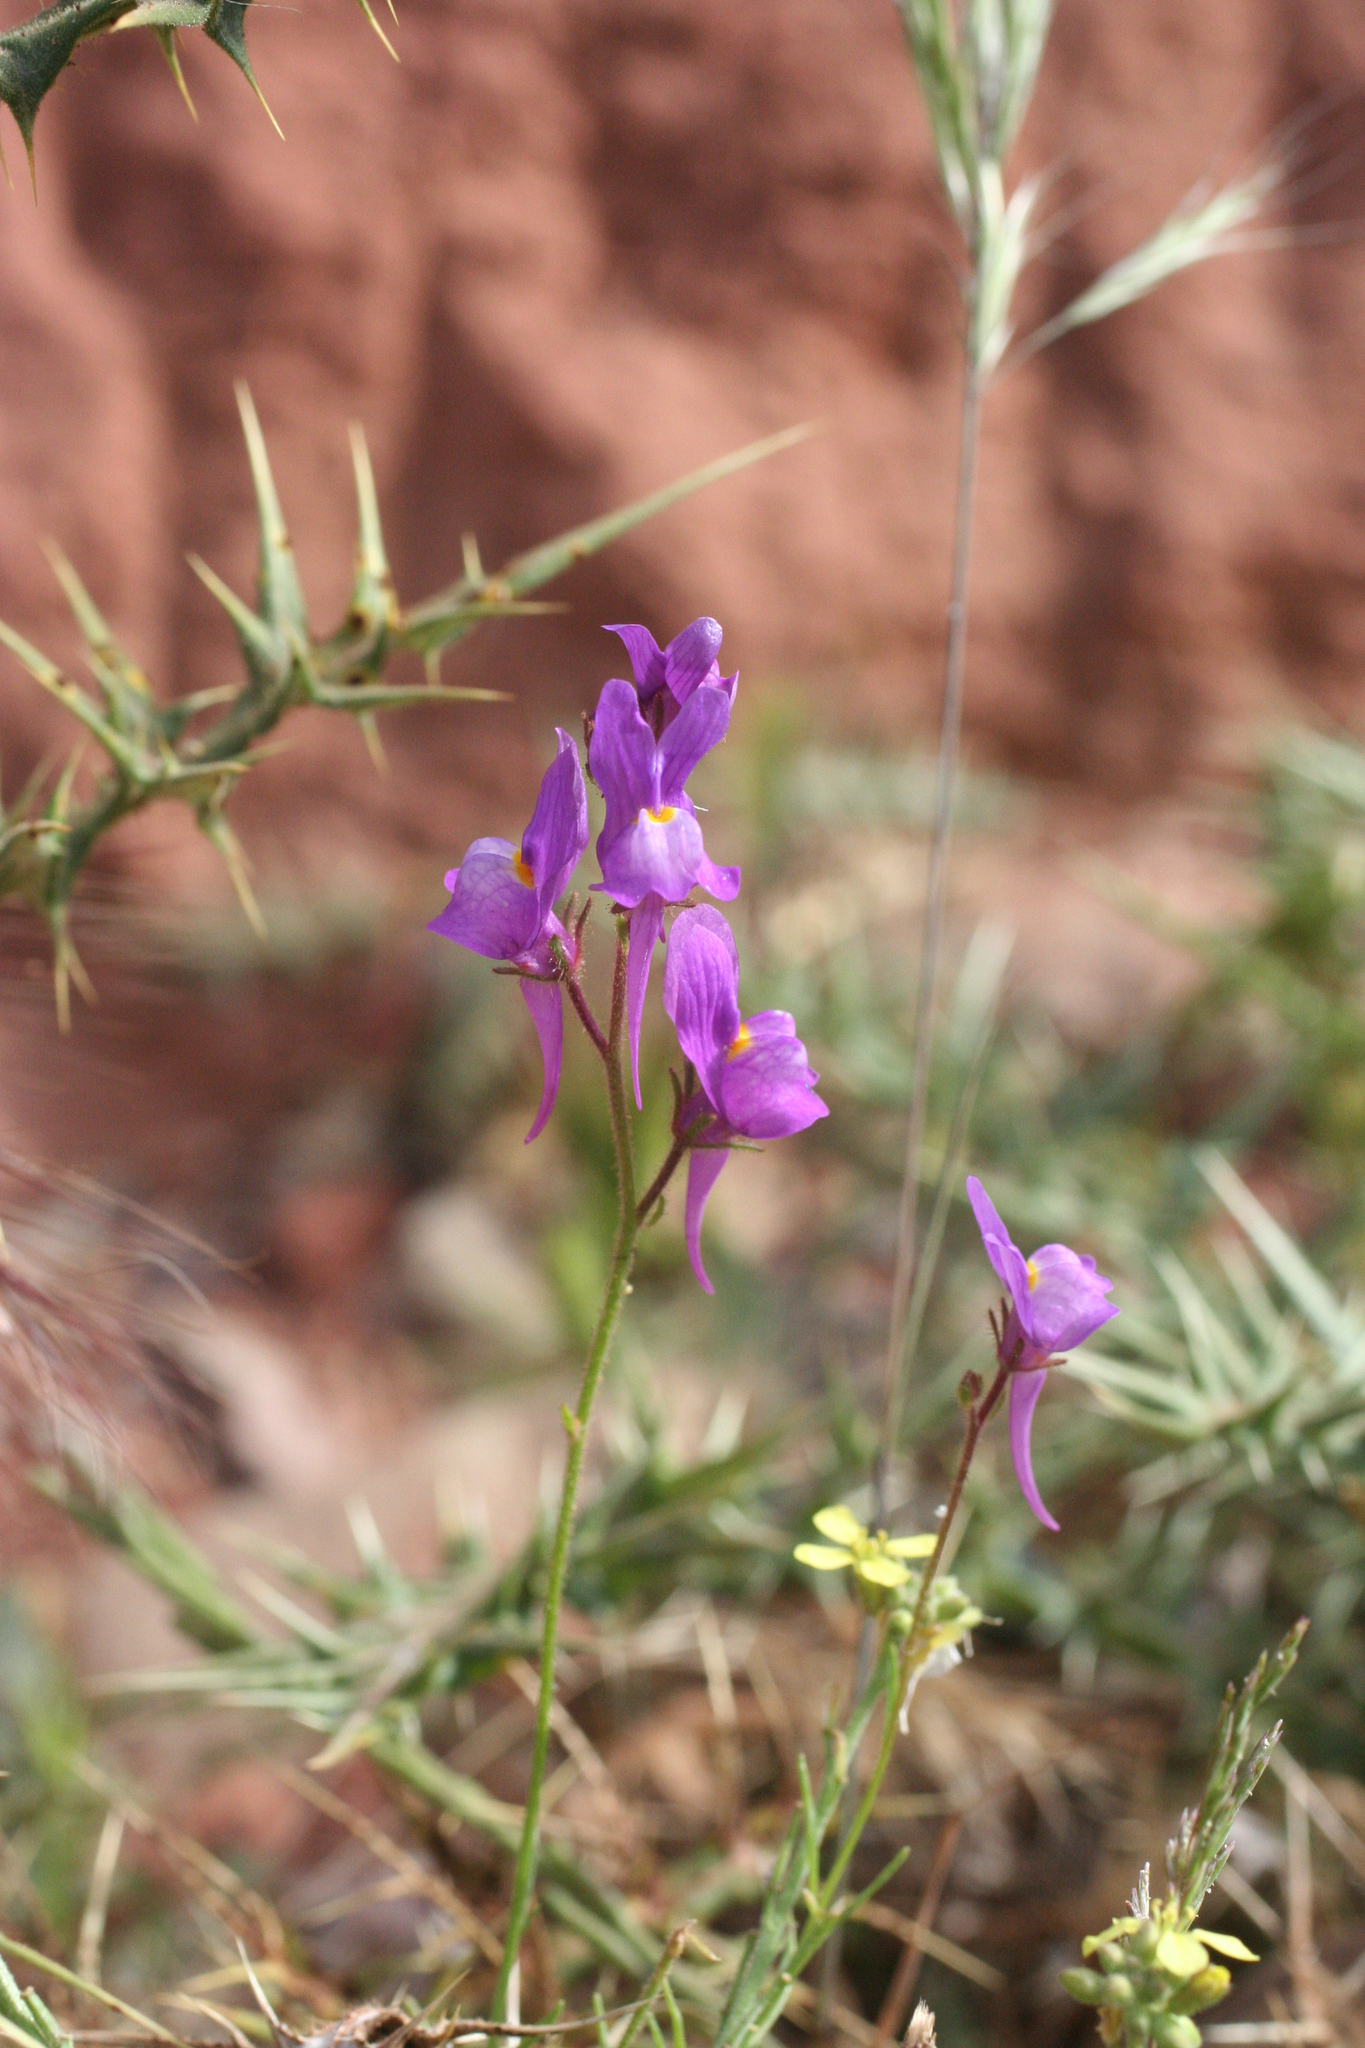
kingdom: Plantae
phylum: Tracheophyta
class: Magnoliopsida
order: Lamiales
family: Plantaginaceae
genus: Linaria
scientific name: Linaria maroccana
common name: Moroccan toadflax
